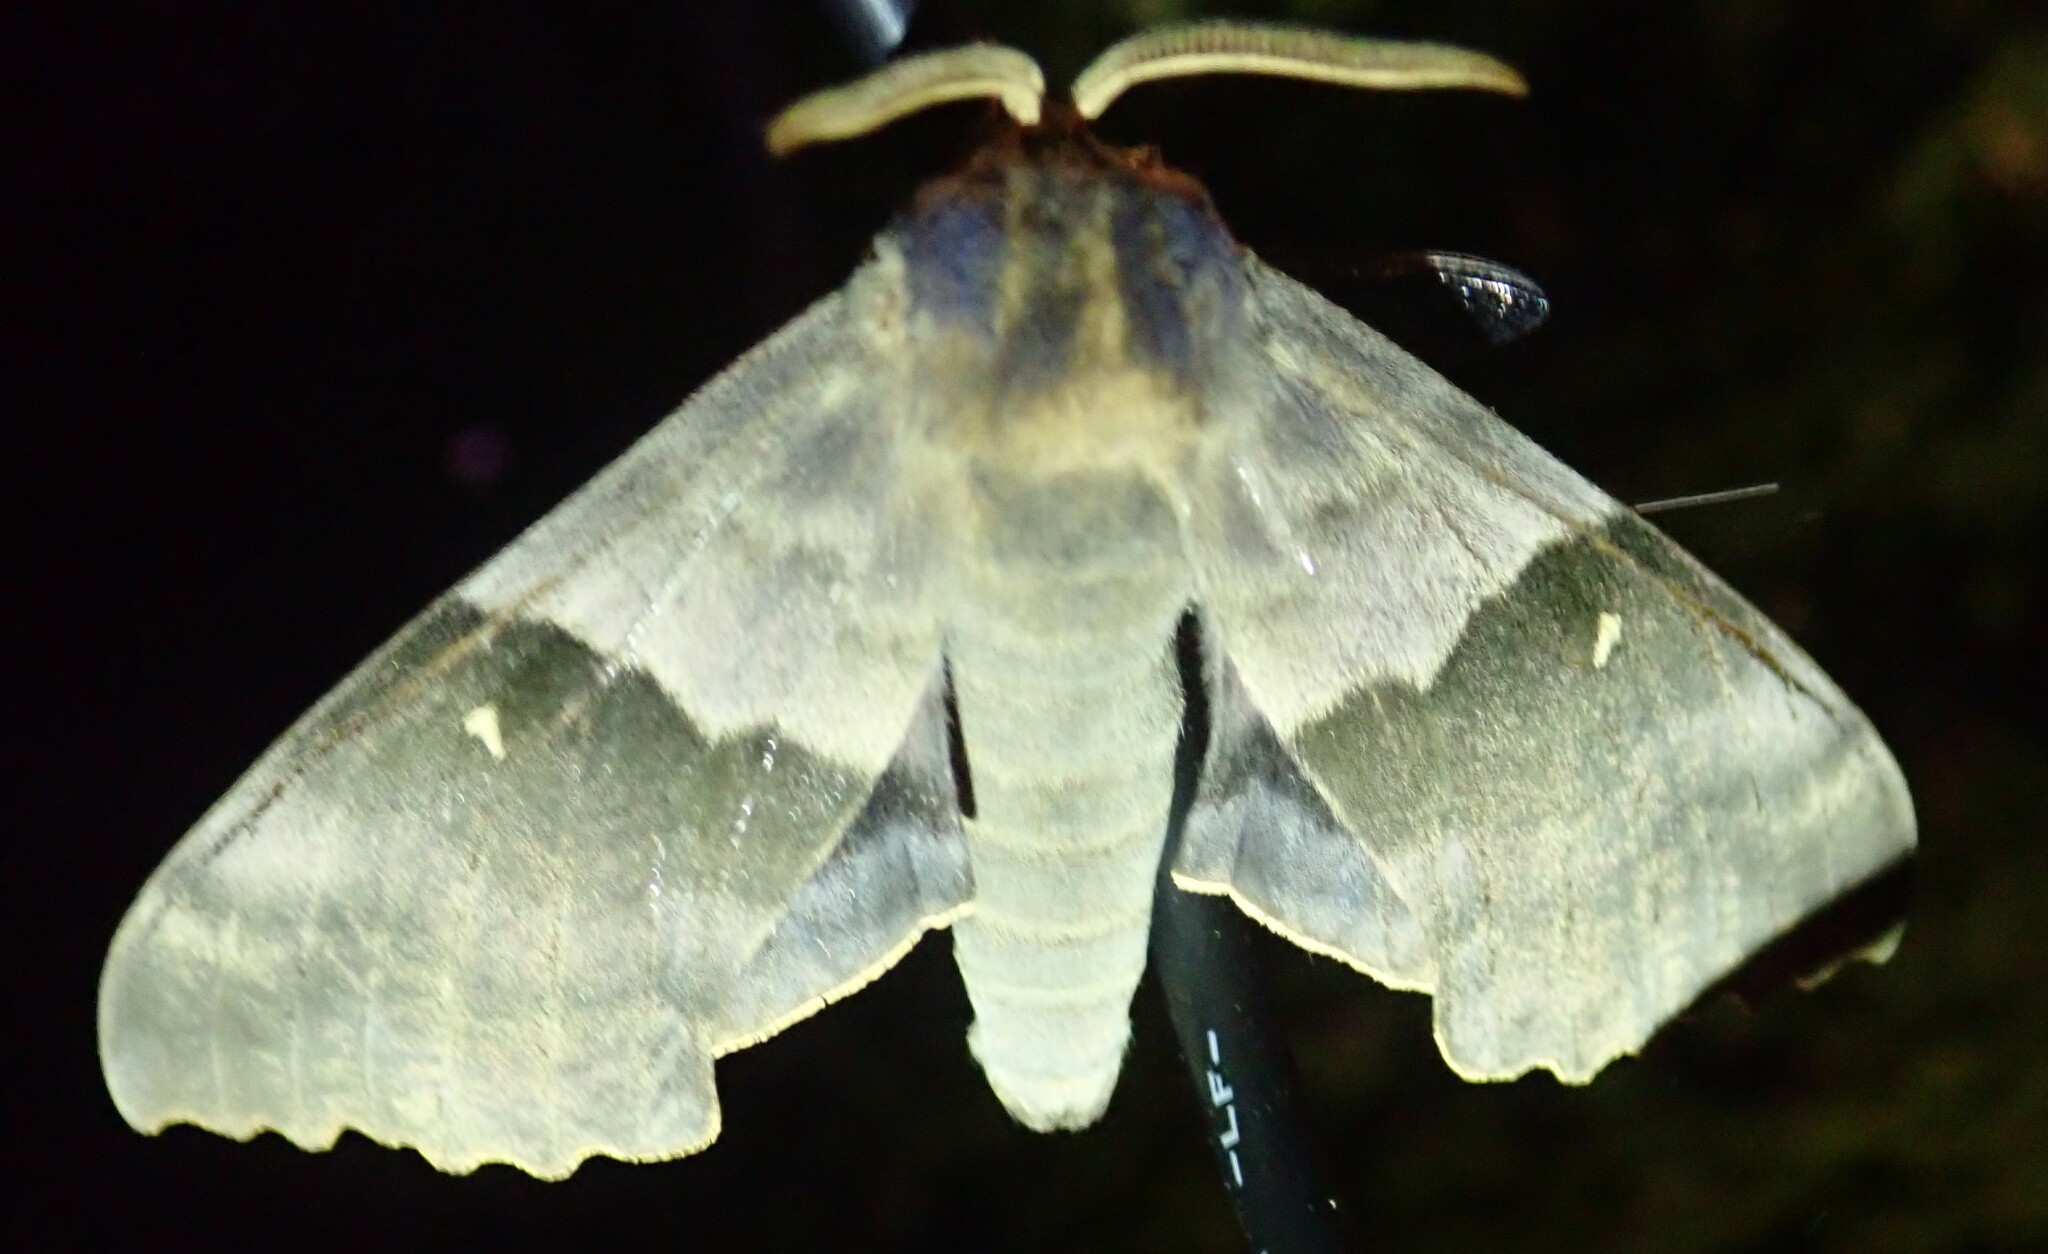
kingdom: Animalia
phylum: Arthropoda
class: Insecta
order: Lepidoptera
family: Sphingidae
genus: Pachysphinx
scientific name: Pachysphinx modesta
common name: Big poplar sphinx
